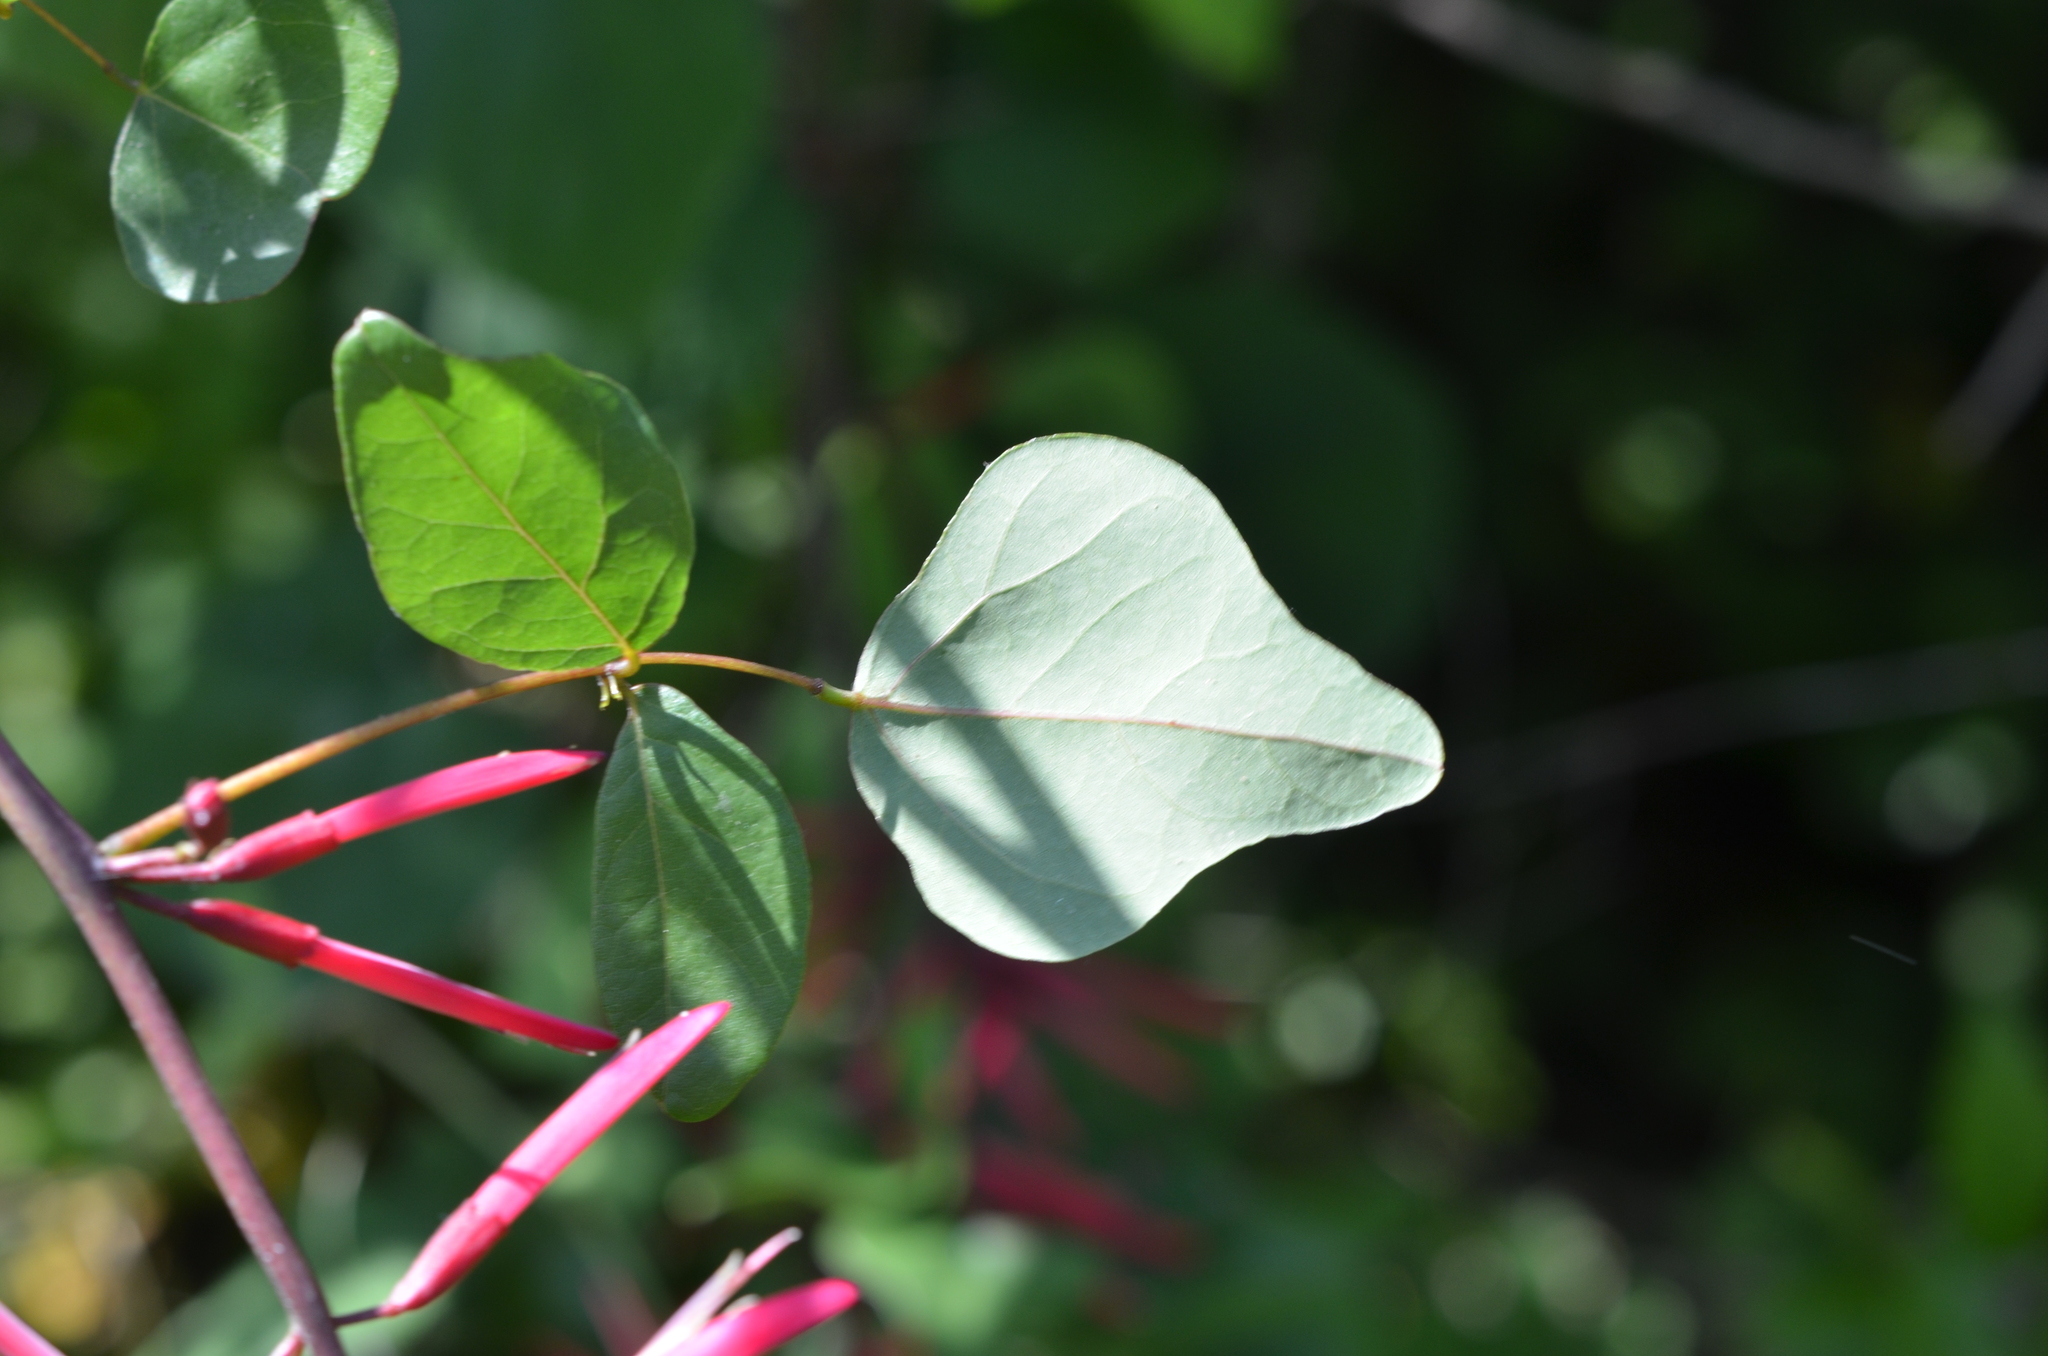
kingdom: Plantae
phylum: Tracheophyta
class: Magnoliopsida
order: Fabales
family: Fabaceae
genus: Erythrina
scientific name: Erythrina herbacea
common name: Coral-bean
